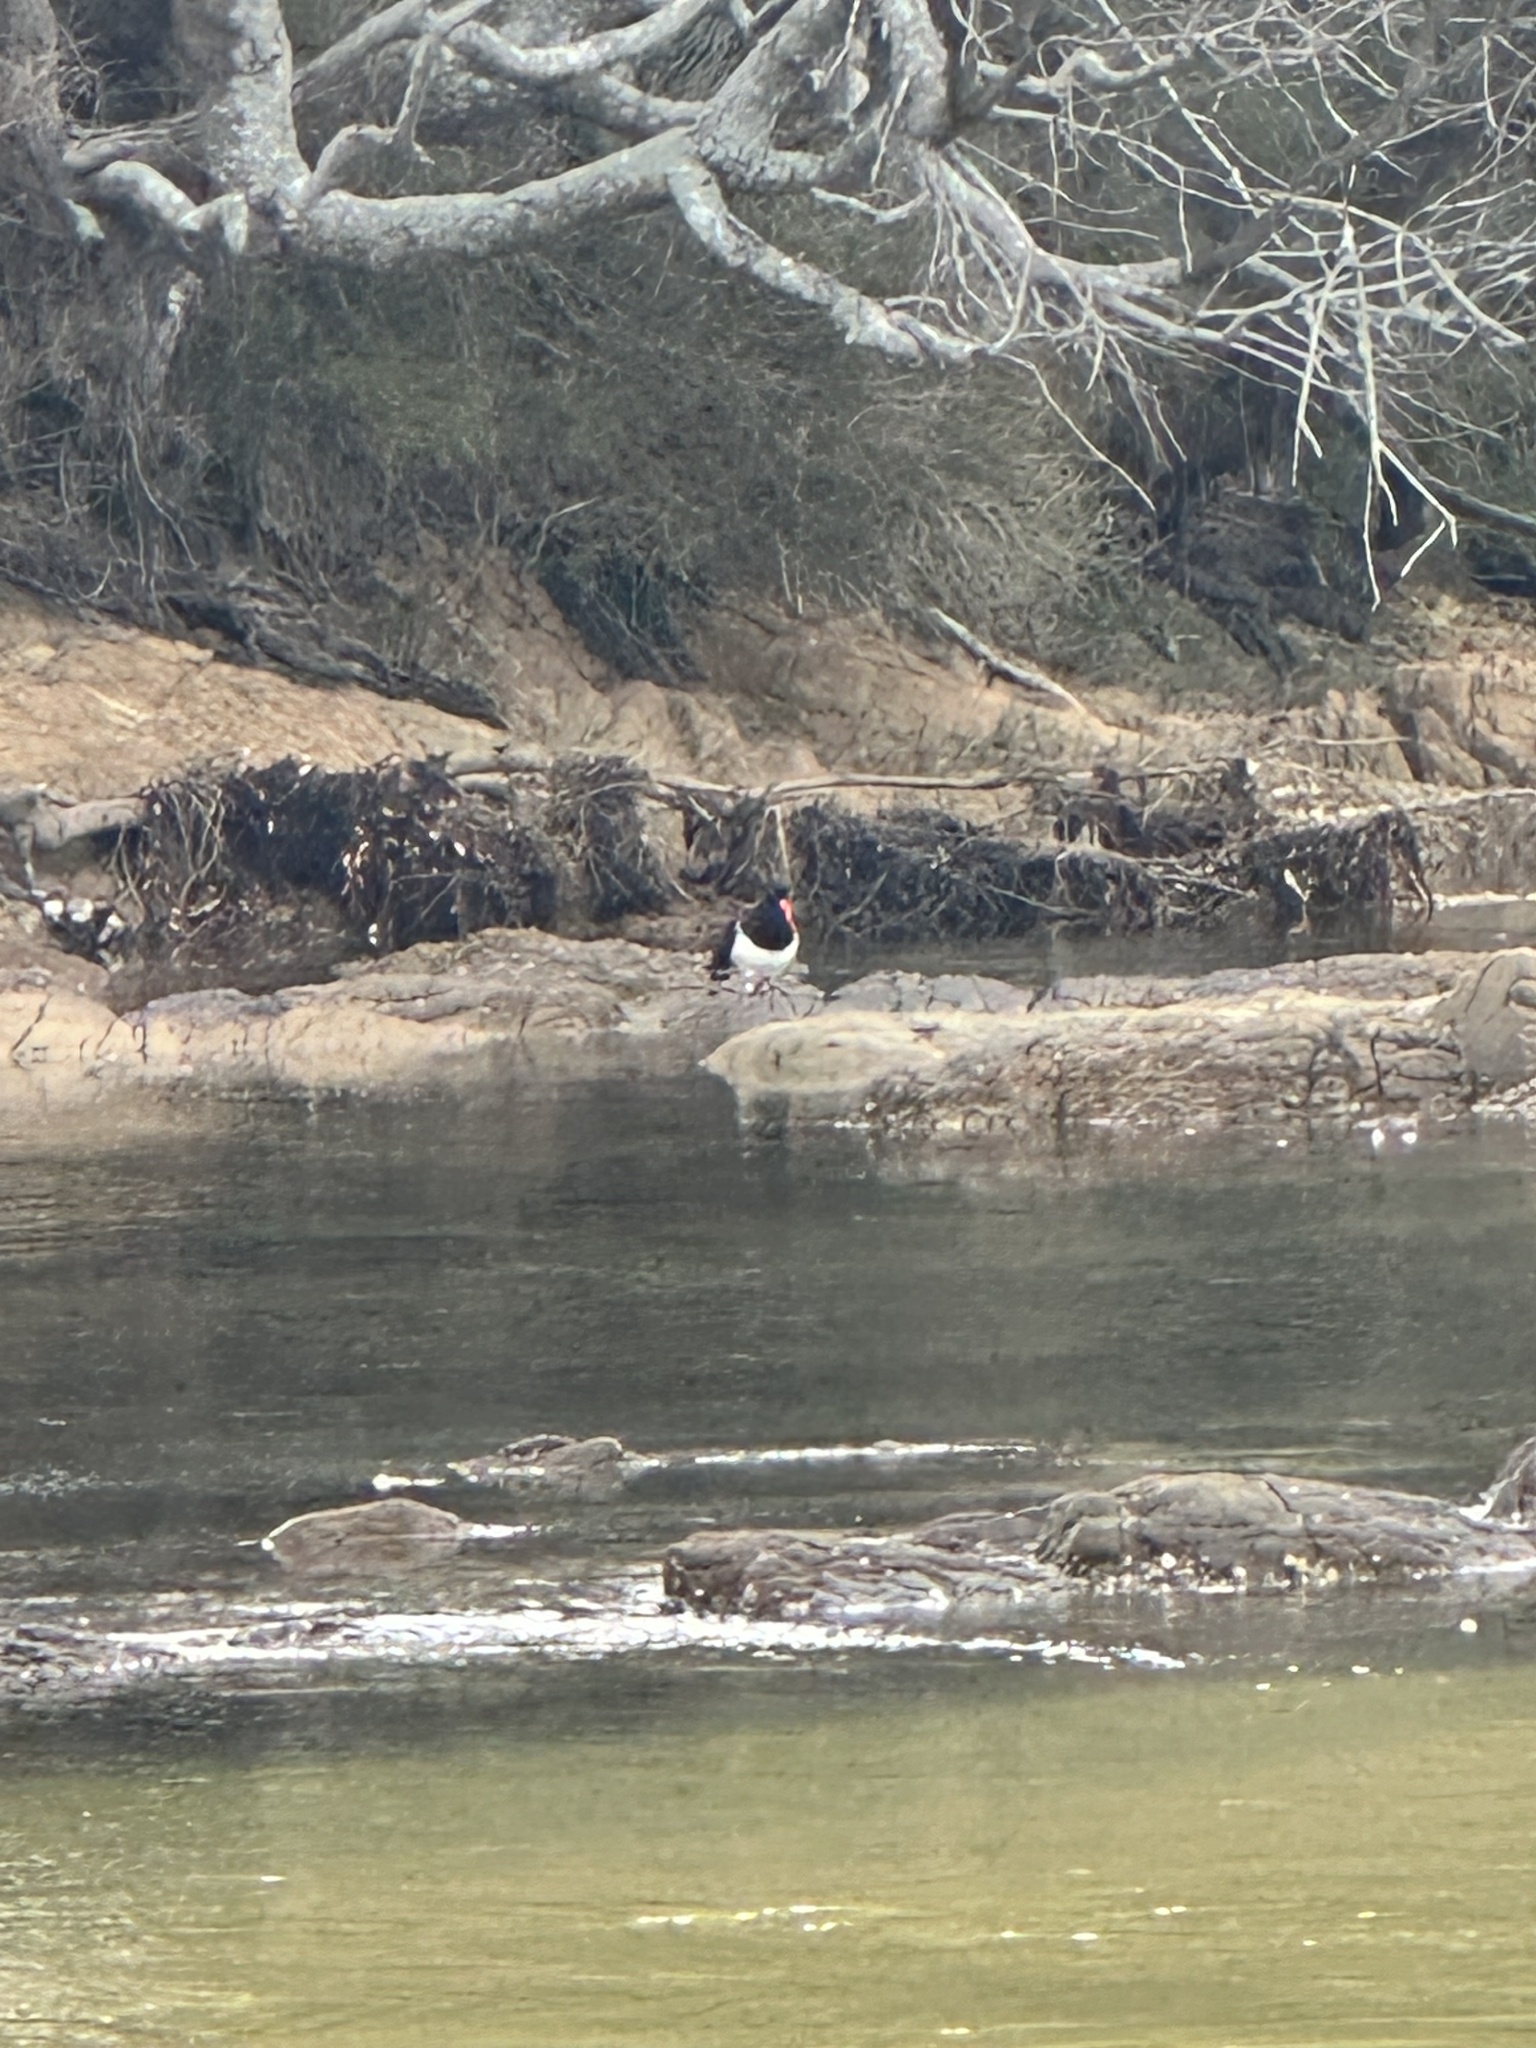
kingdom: Animalia
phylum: Chordata
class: Aves
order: Charadriiformes
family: Haematopodidae
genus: Haematopus
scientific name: Haematopus longirostris
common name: Pied oystercatcher
